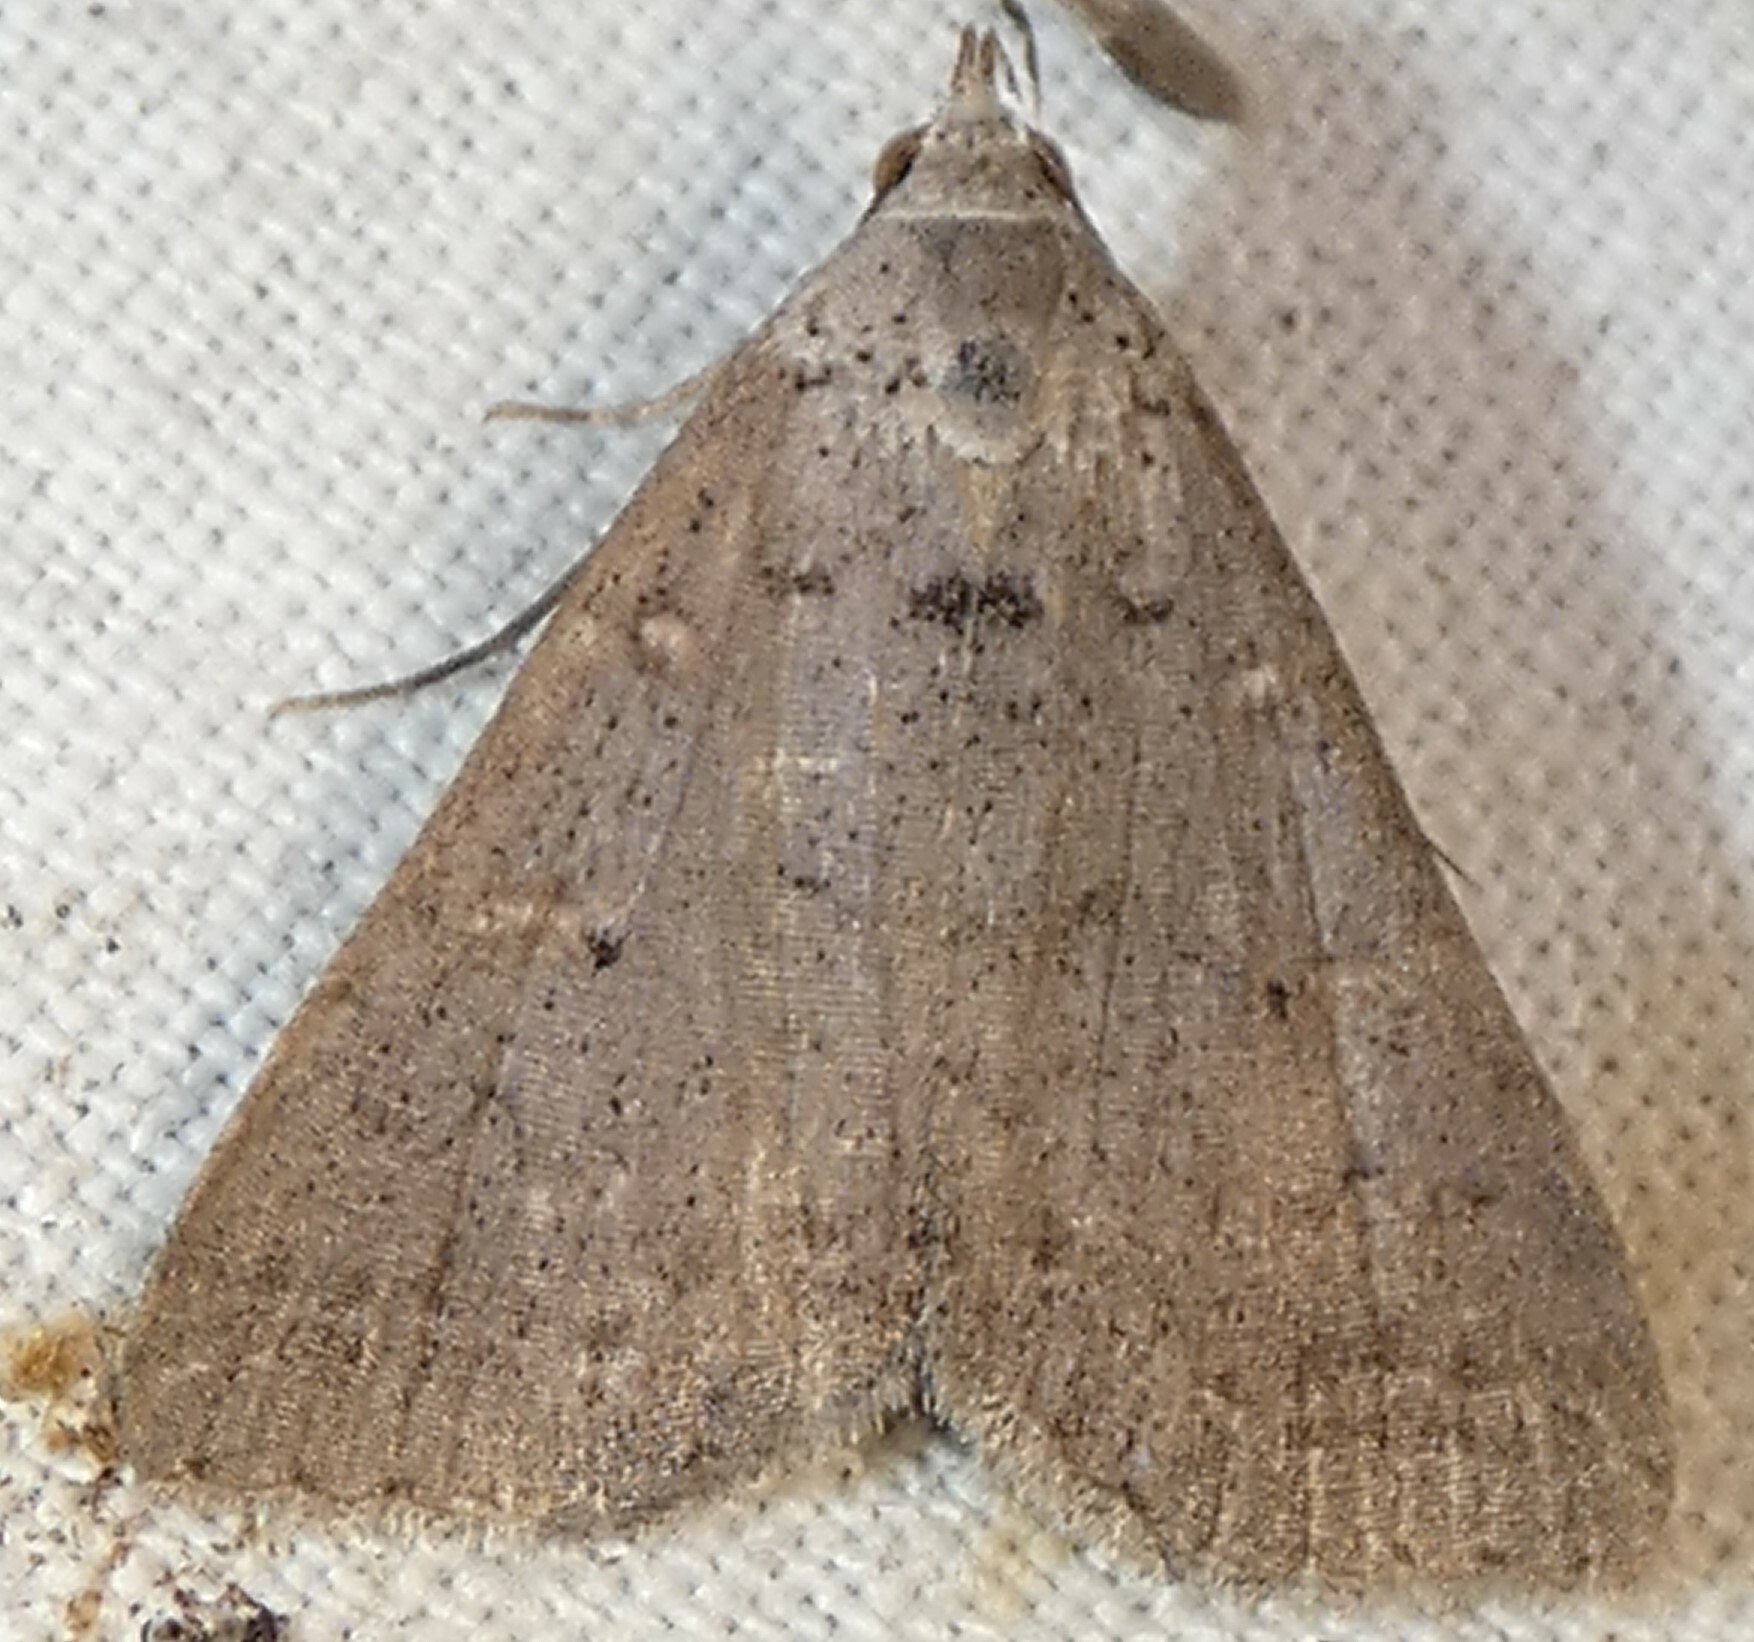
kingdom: Animalia
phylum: Arthropoda
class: Insecta
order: Lepidoptera
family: Erebidae
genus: Bleptina
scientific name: Bleptina caradrinalis
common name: Bent-winged owlet
